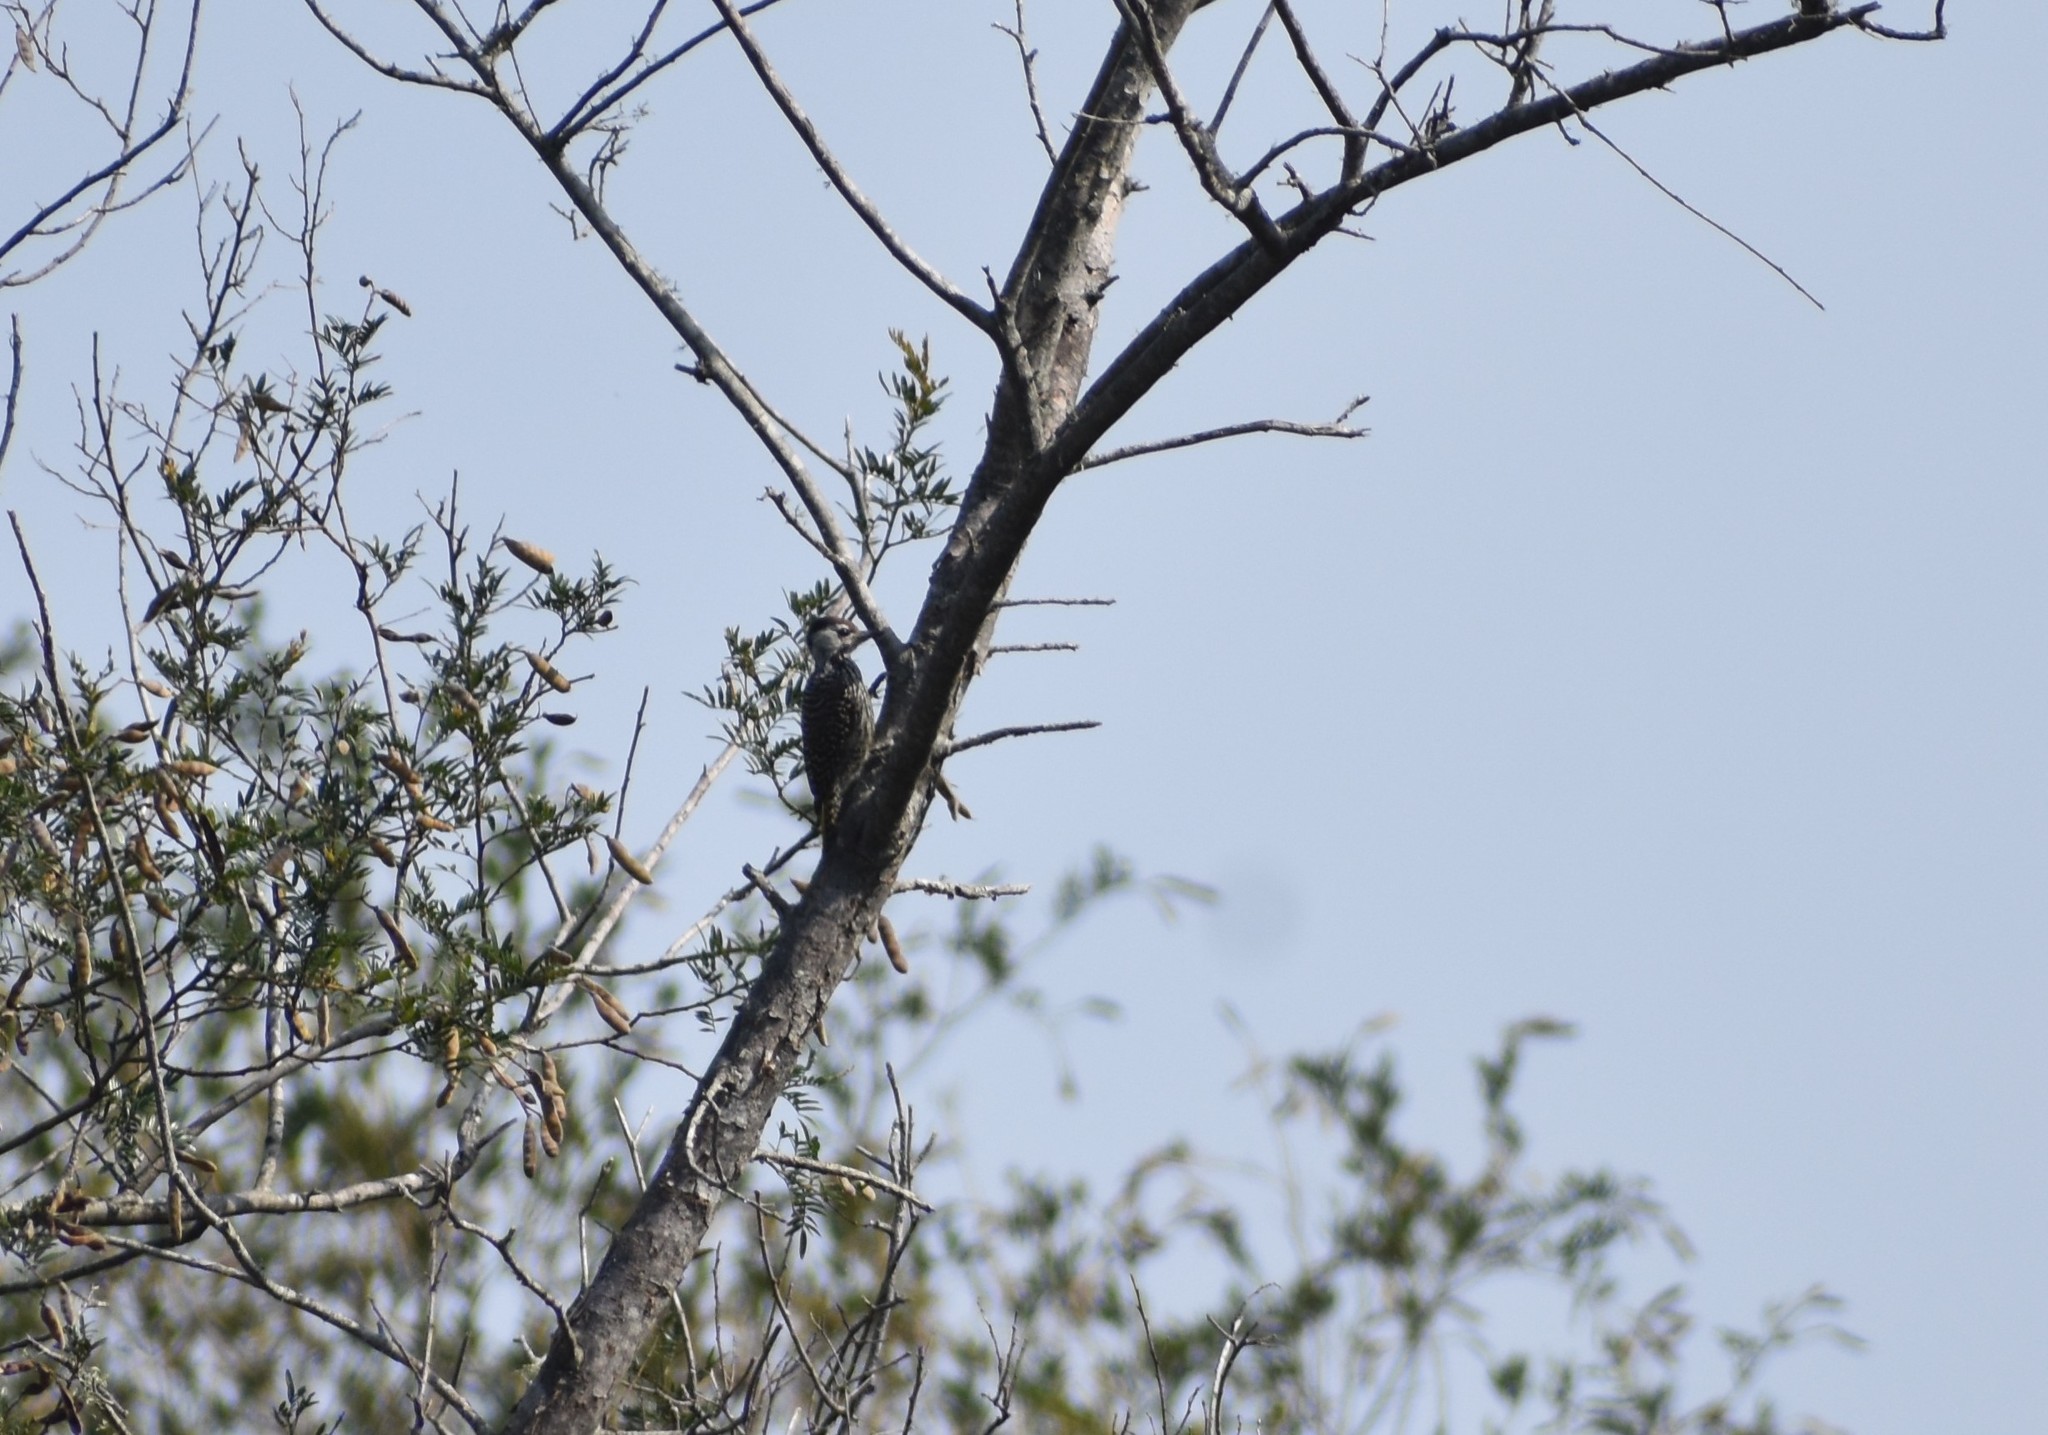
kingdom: Animalia
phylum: Chordata
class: Aves
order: Piciformes
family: Picidae
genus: Dendropicos
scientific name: Dendropicos fuscescens
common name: Cardinal woodpecker
